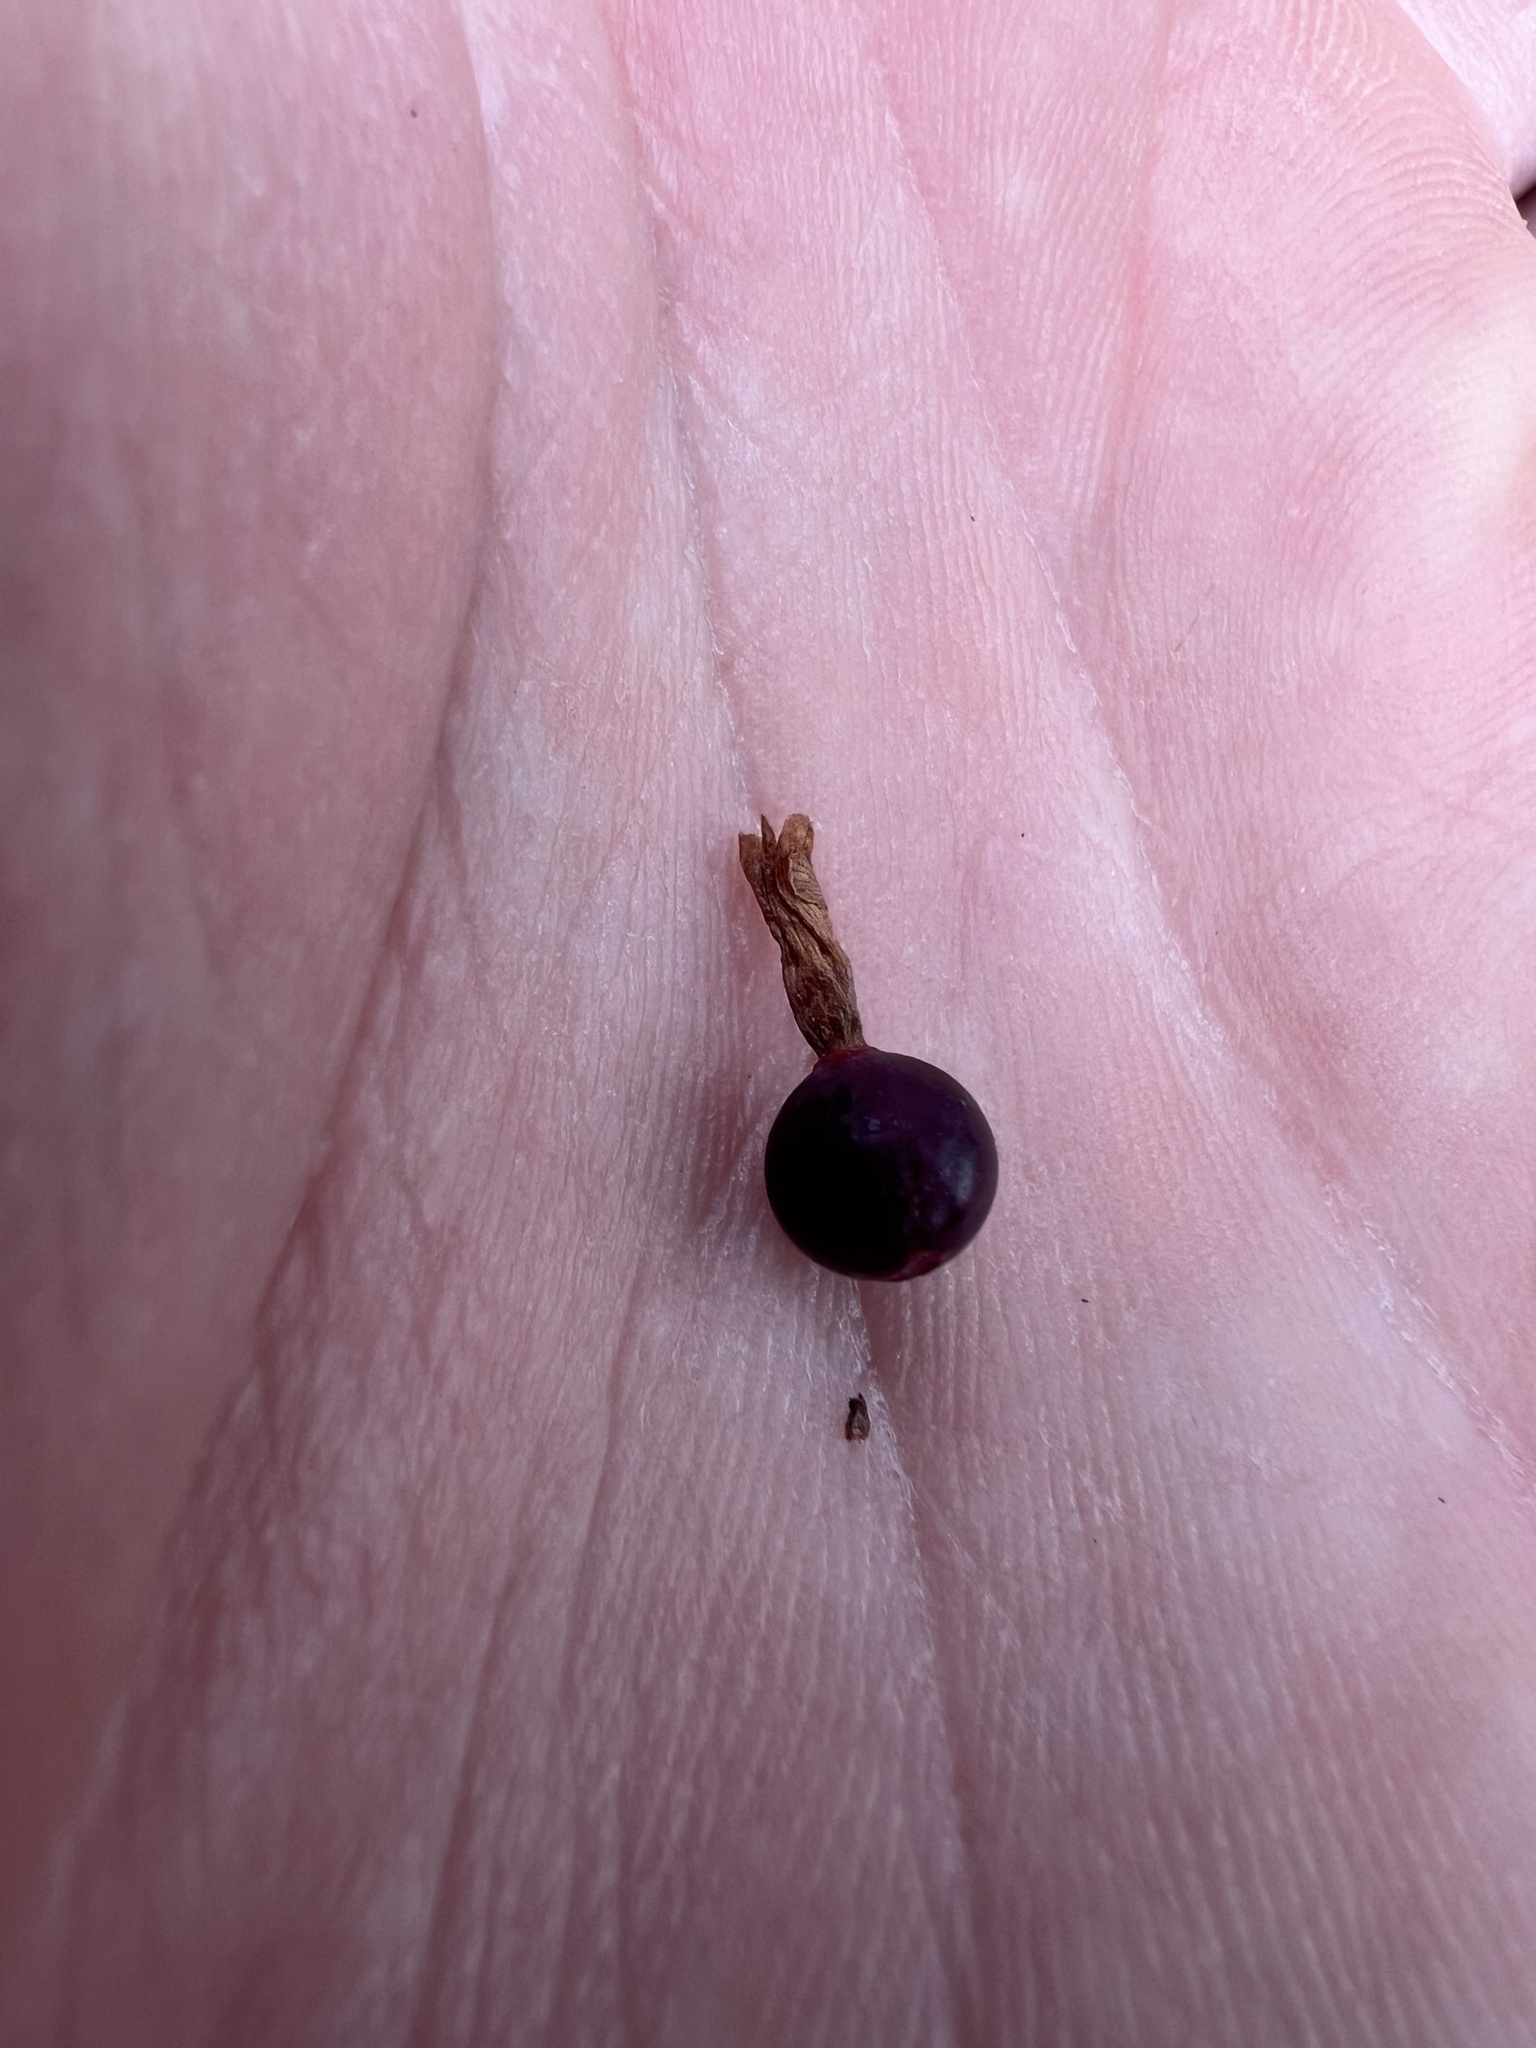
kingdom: Plantae
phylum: Tracheophyta
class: Magnoliopsida
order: Saxifragales
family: Grossulariaceae
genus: Ribes
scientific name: Ribes inerme
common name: White-stem gooseberry
